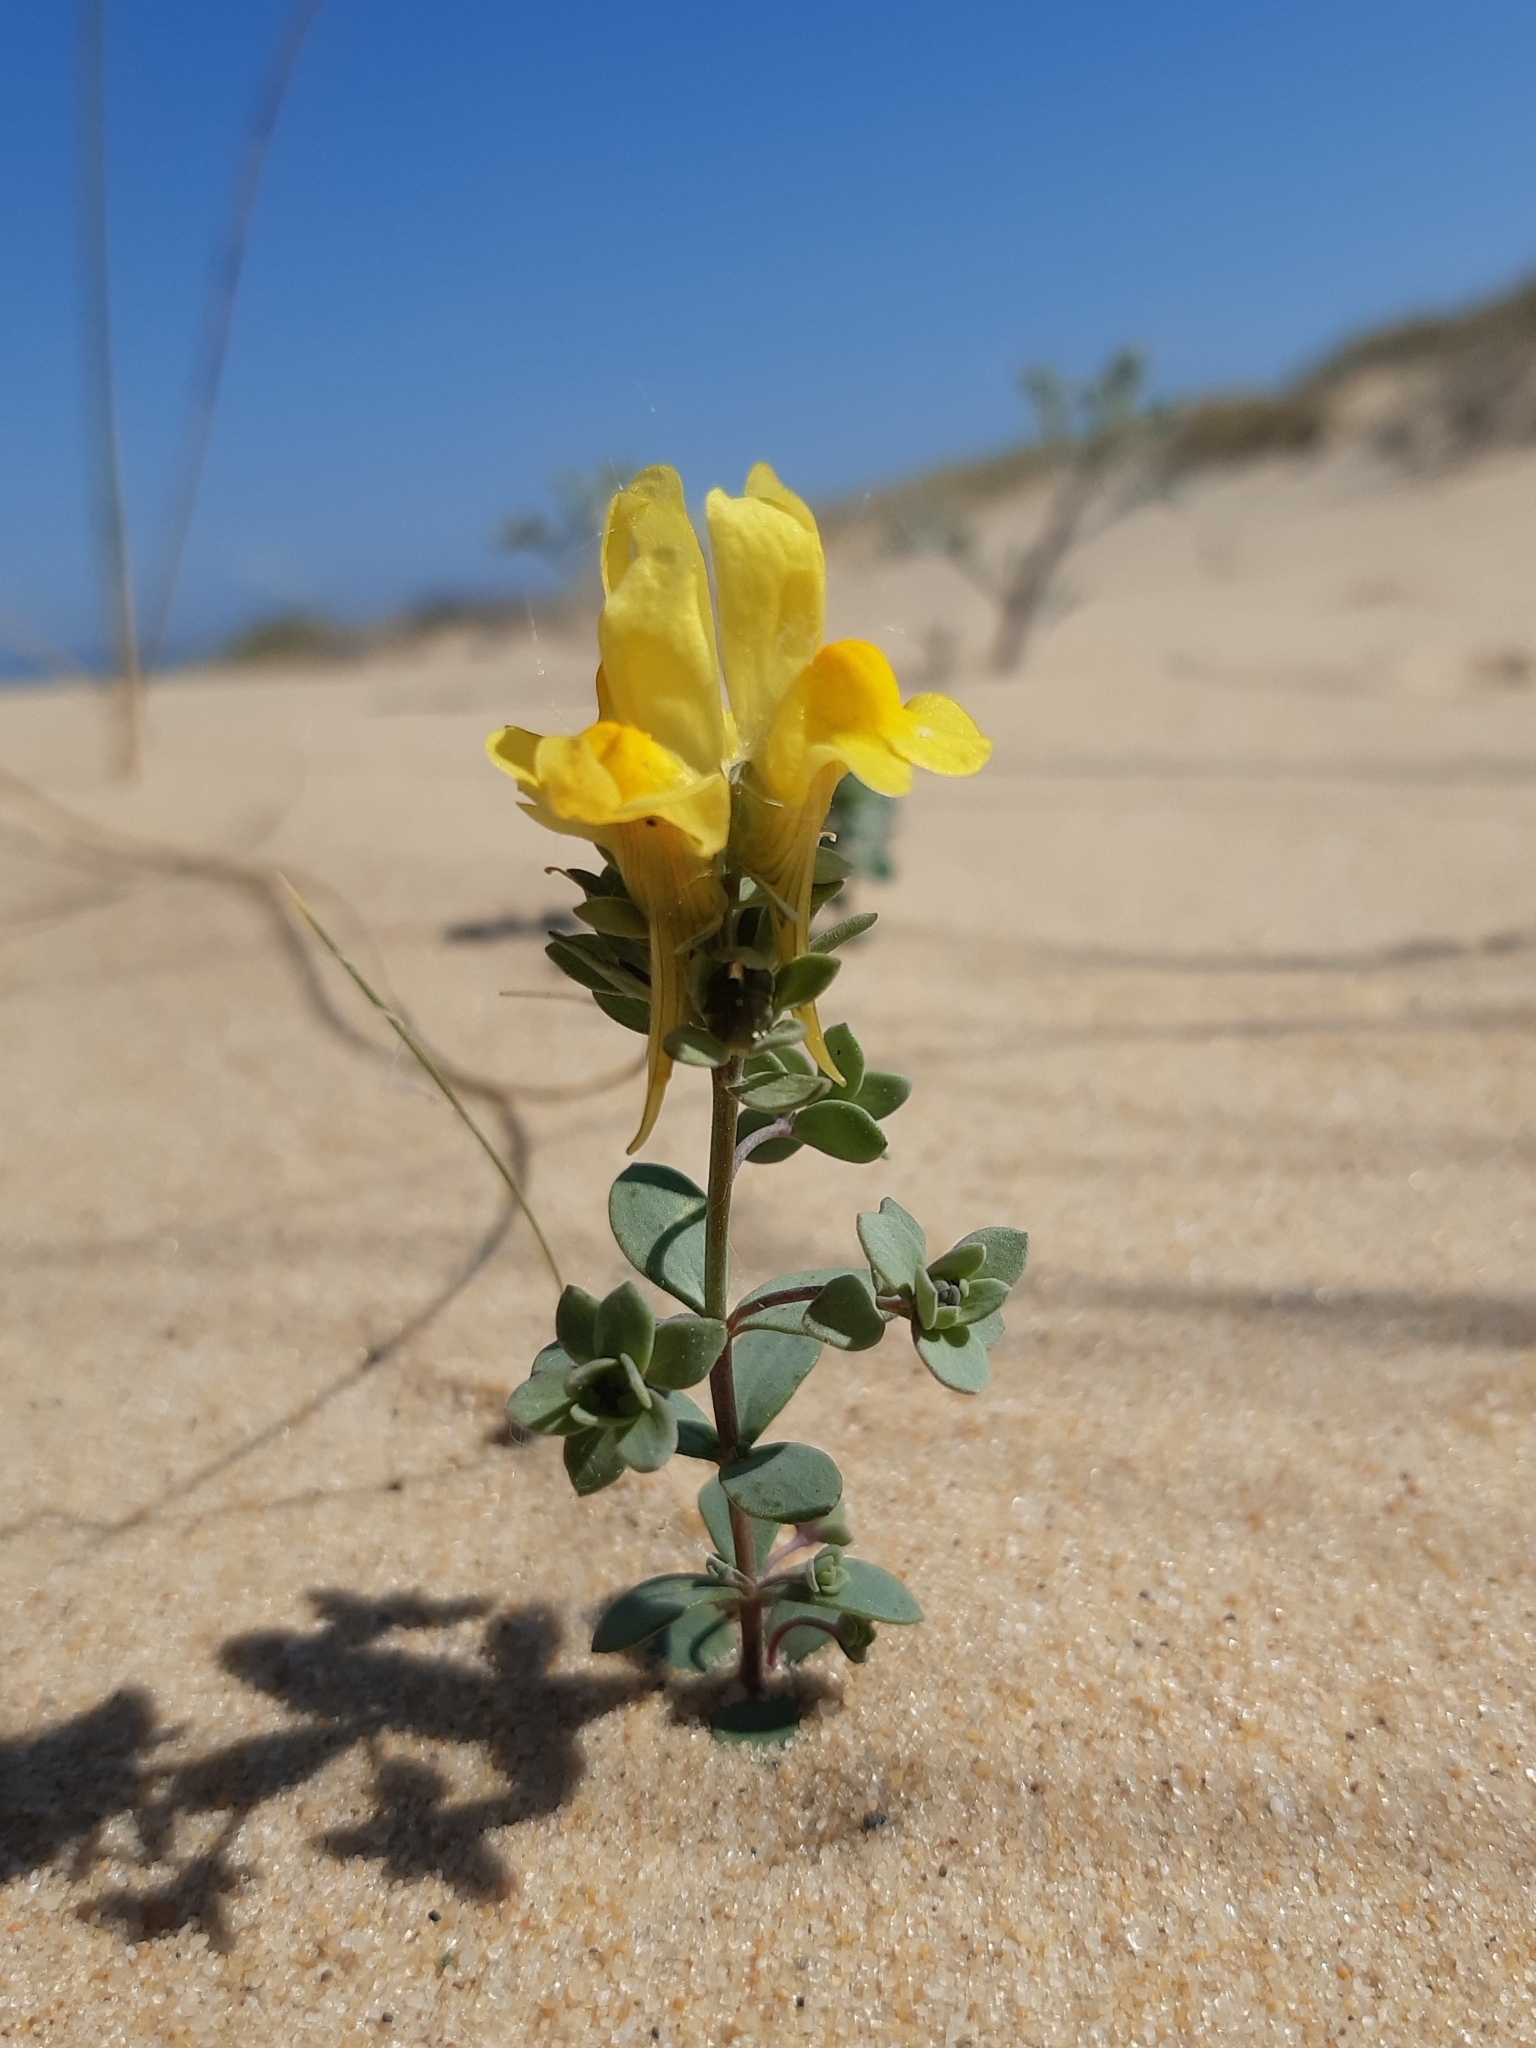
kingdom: Plantae
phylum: Tracheophyta
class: Magnoliopsida
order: Lamiales
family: Plantaginaceae
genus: Linaria
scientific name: Linaria thymifolia
